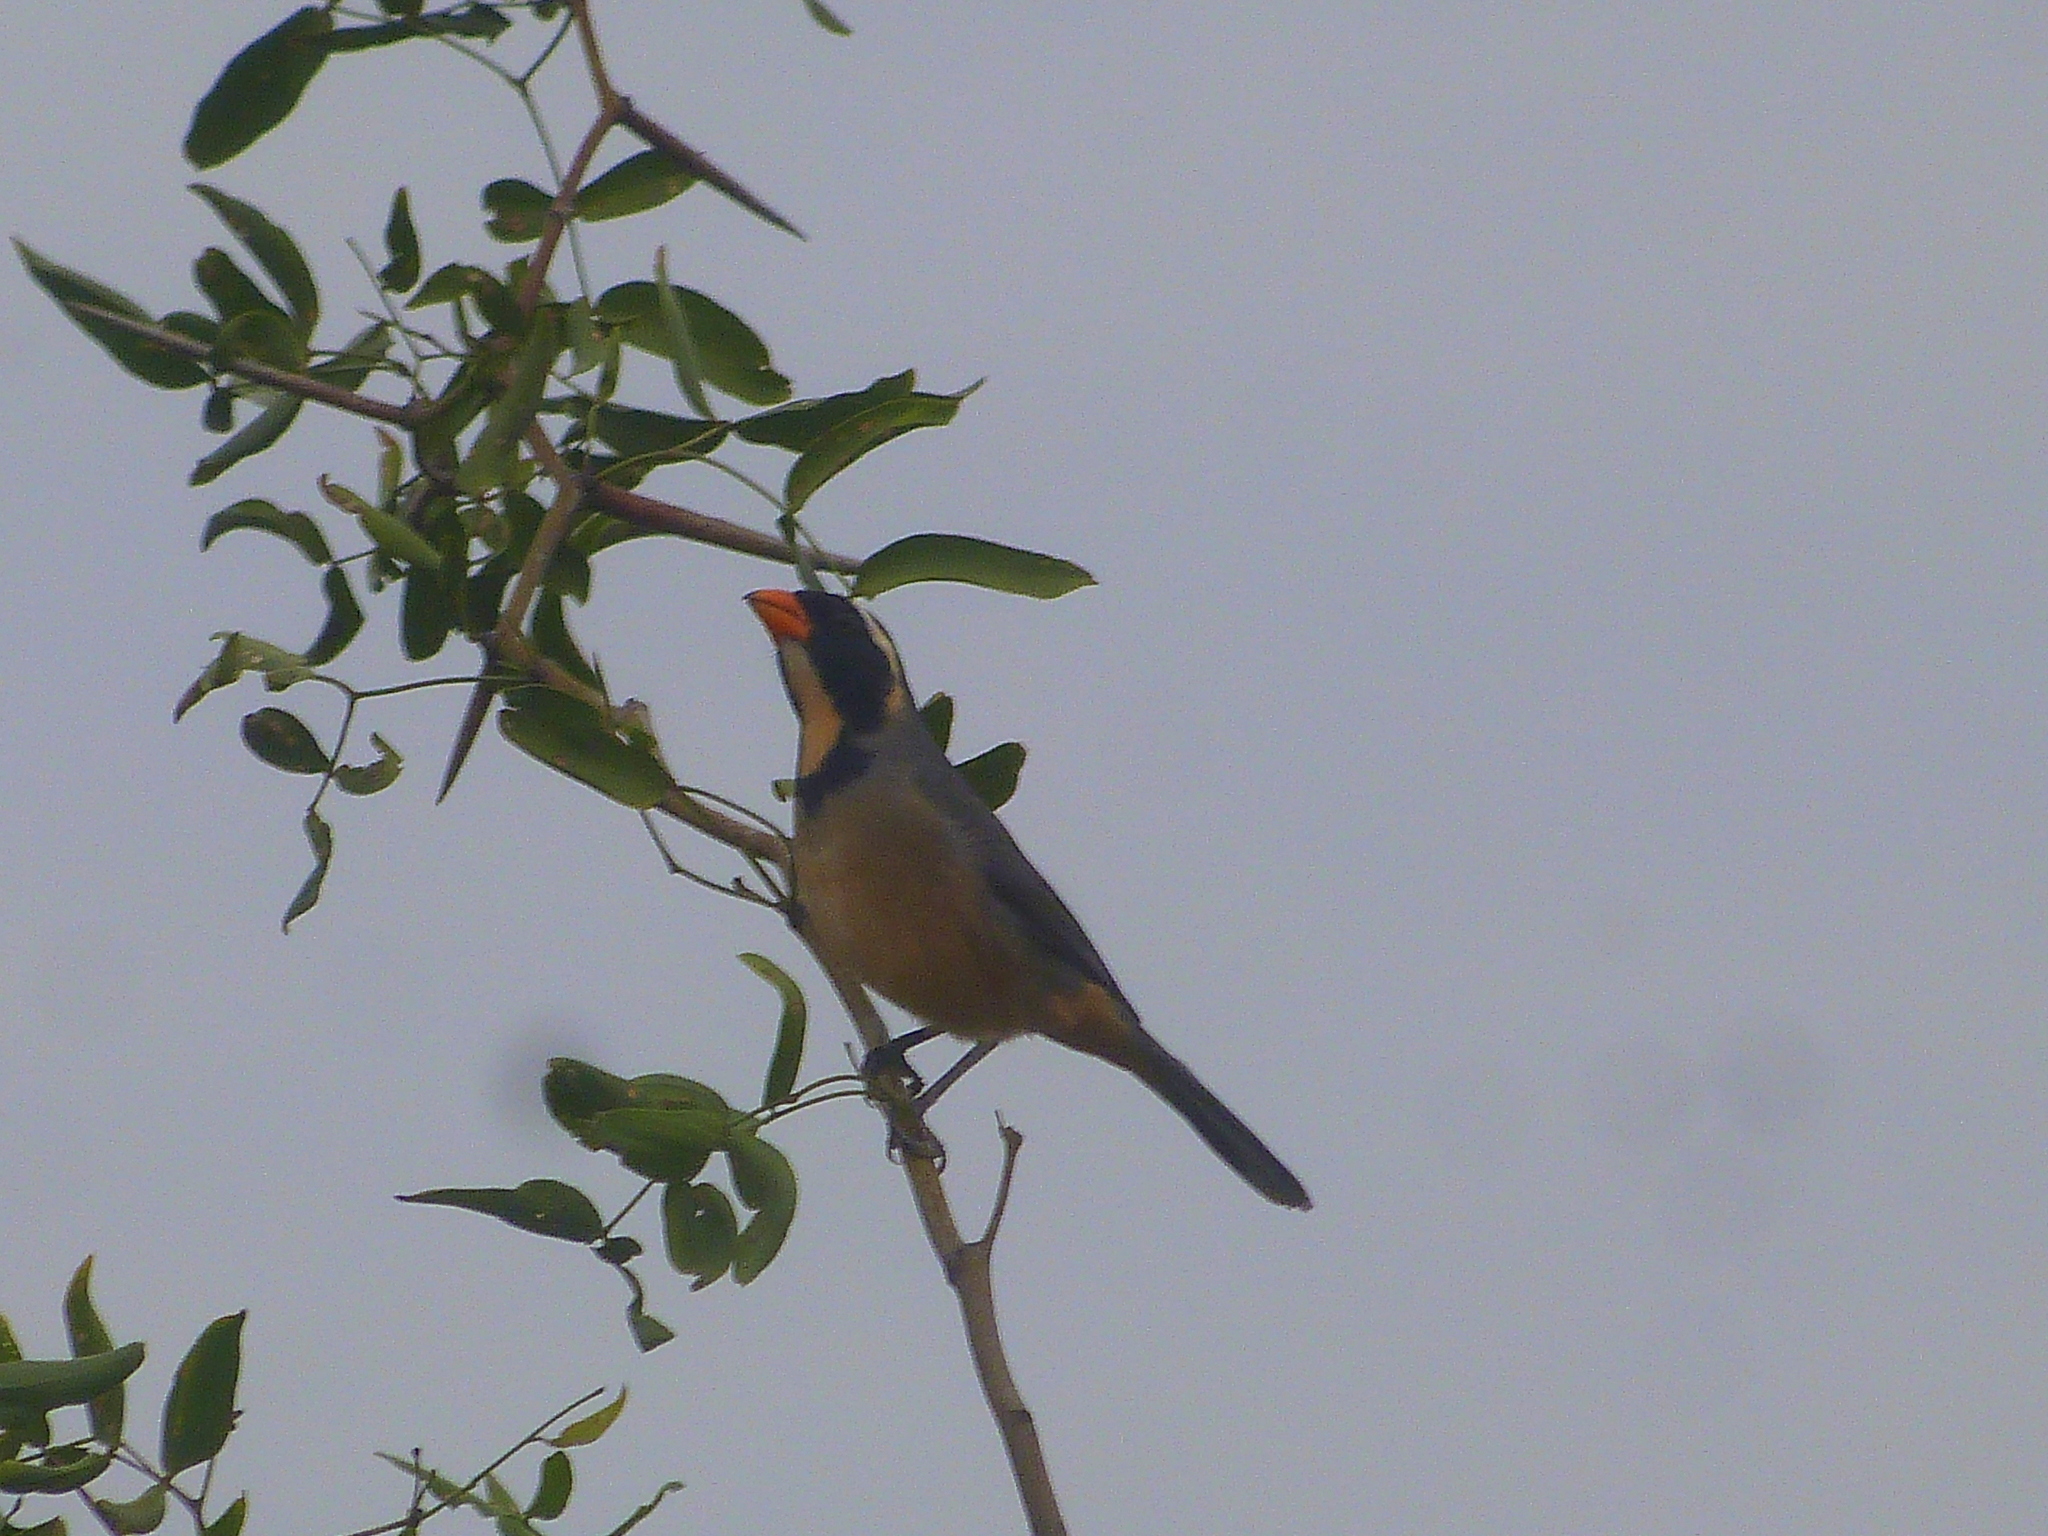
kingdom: Animalia
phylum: Chordata
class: Aves
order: Passeriformes
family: Thraupidae
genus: Saltator
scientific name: Saltator aurantiirostris
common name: Golden-billed saltator
